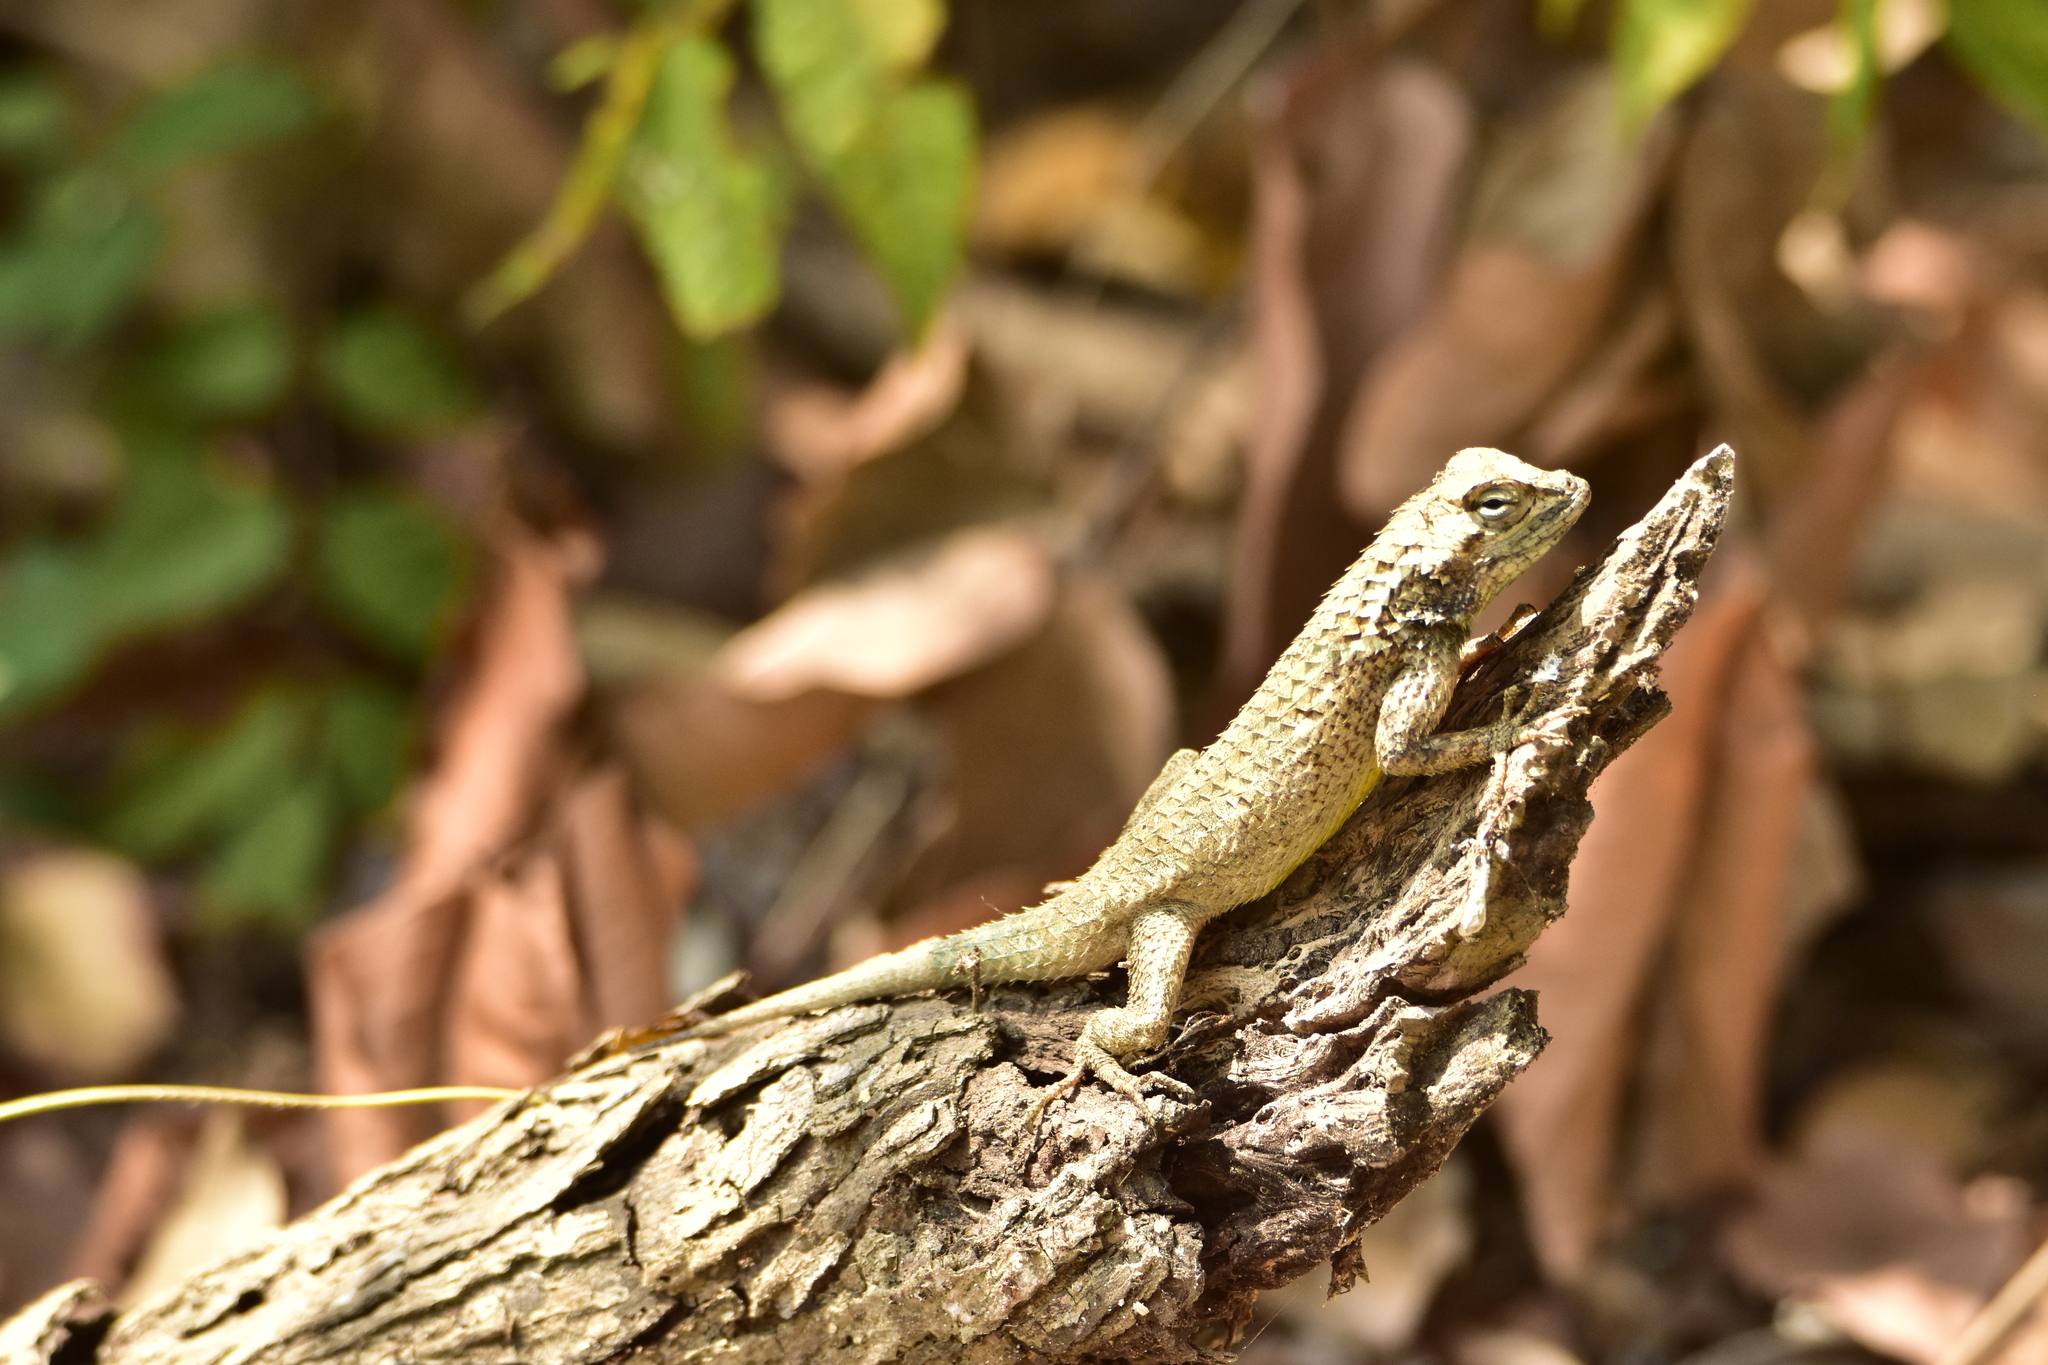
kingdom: Animalia
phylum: Chordata
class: Squamata
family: Phrynosomatidae
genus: Sceloporus
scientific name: Sceloporus melanorhinus
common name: Black-nosed lizard
